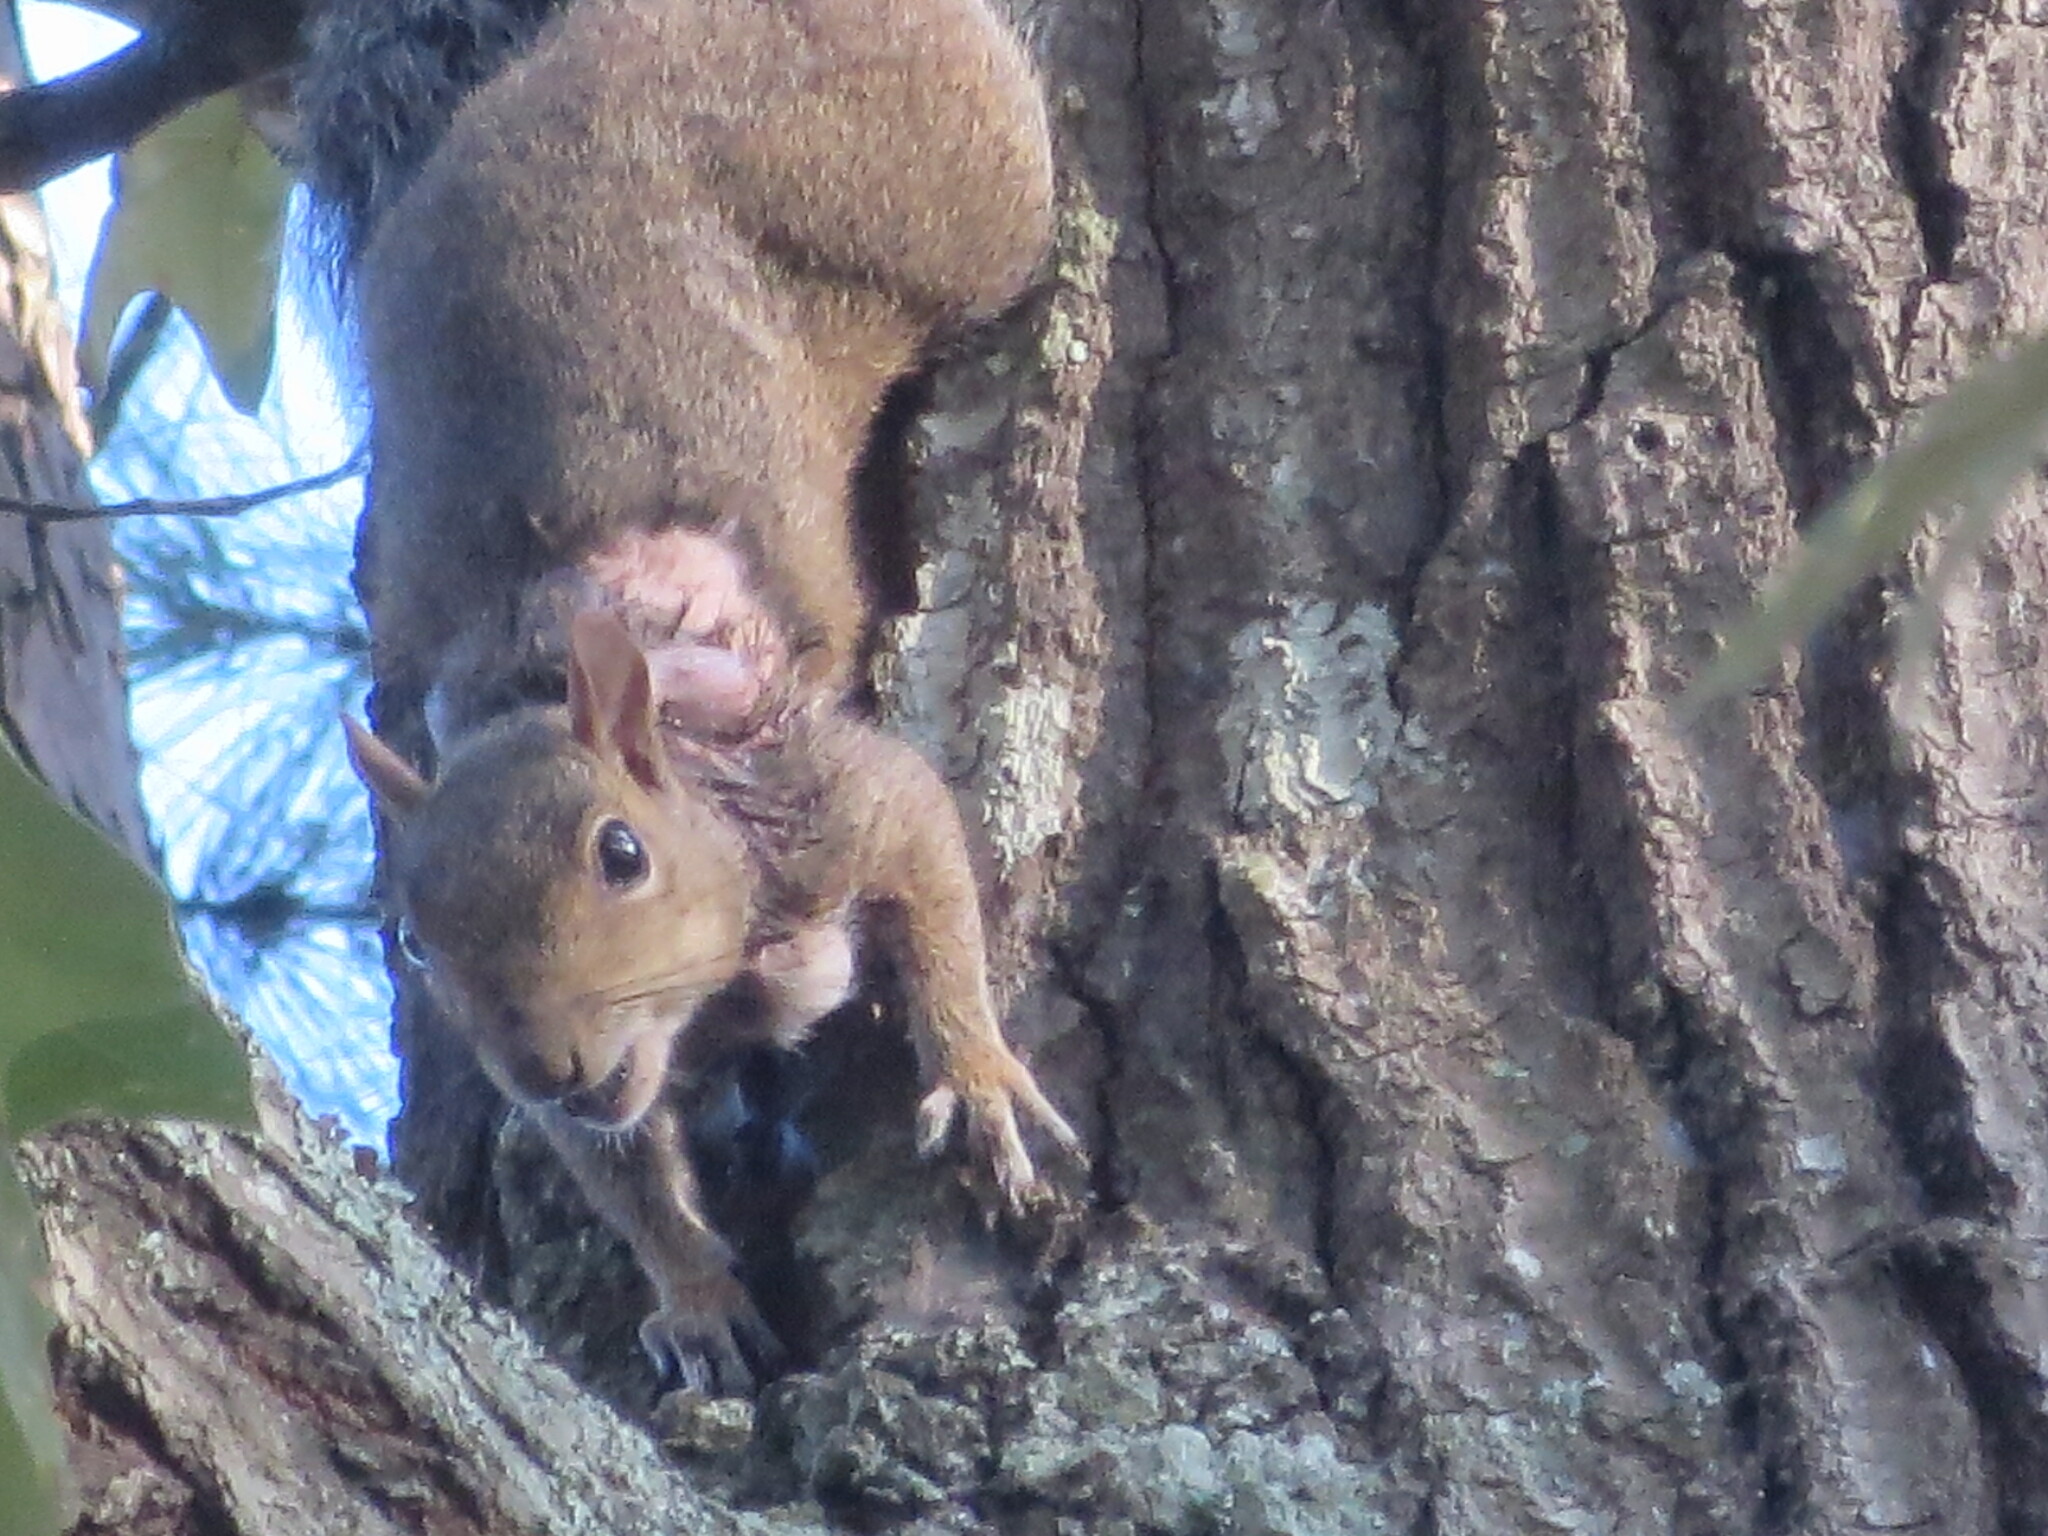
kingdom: Animalia
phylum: Arthropoda
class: Insecta
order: Diptera
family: Oestridae
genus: Cuterebra
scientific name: Cuterebra emasculator
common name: Squirrel bot fly
